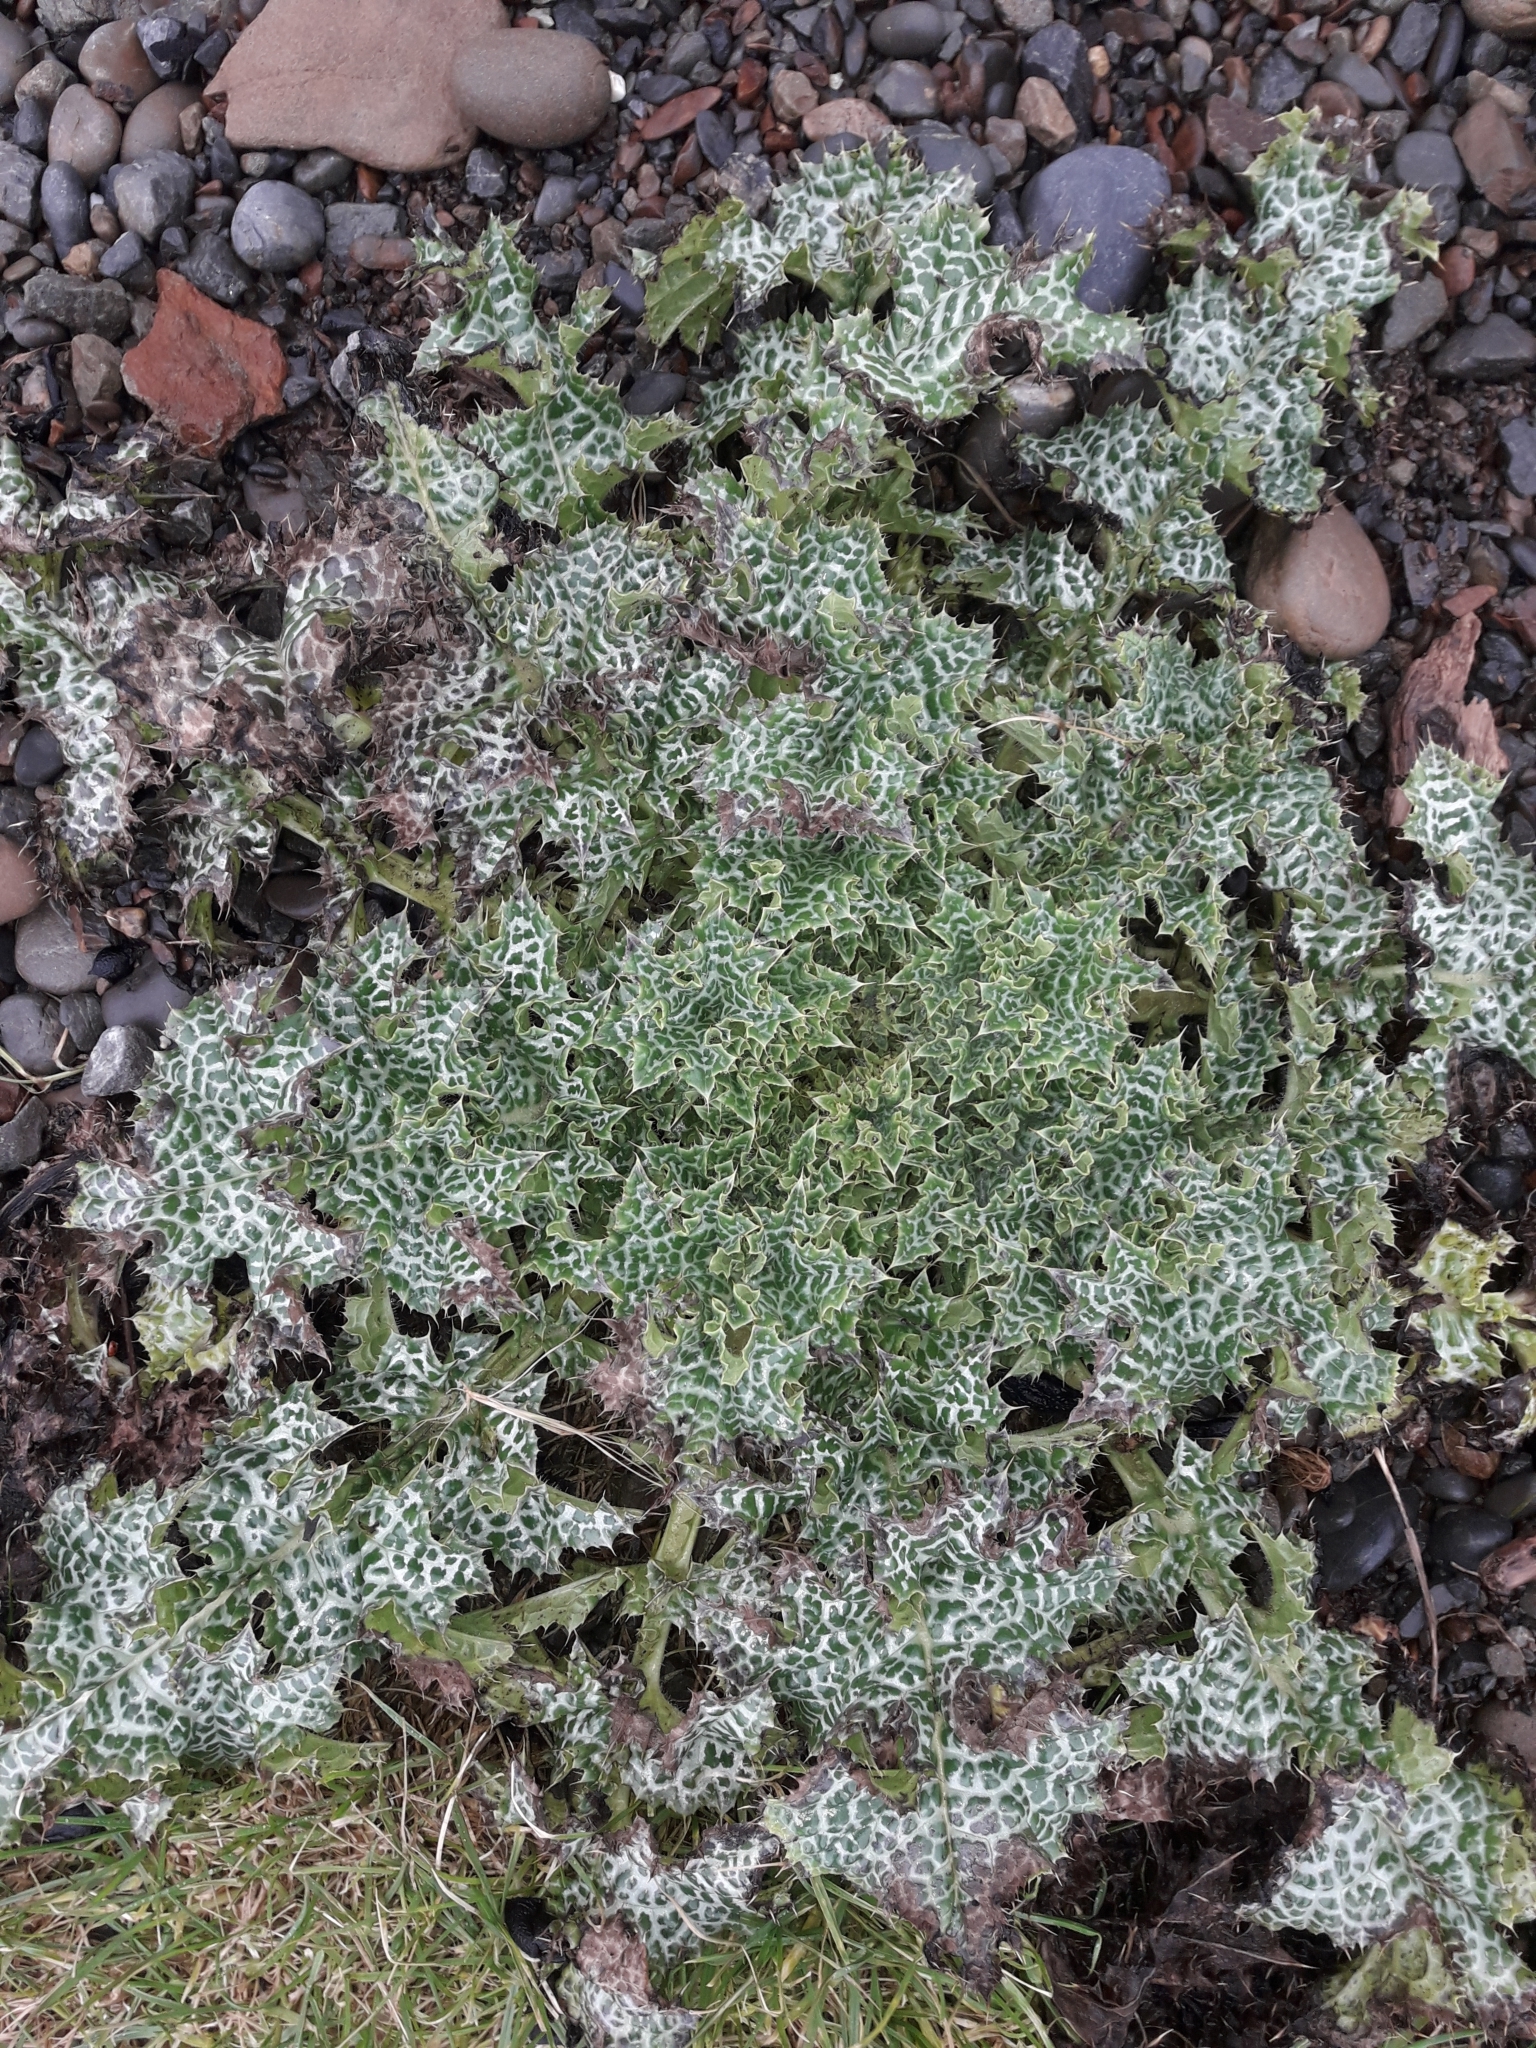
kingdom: Plantae
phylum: Tracheophyta
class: Magnoliopsida
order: Asterales
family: Asteraceae
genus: Silybum
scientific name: Silybum marianum
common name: Milk thistle
